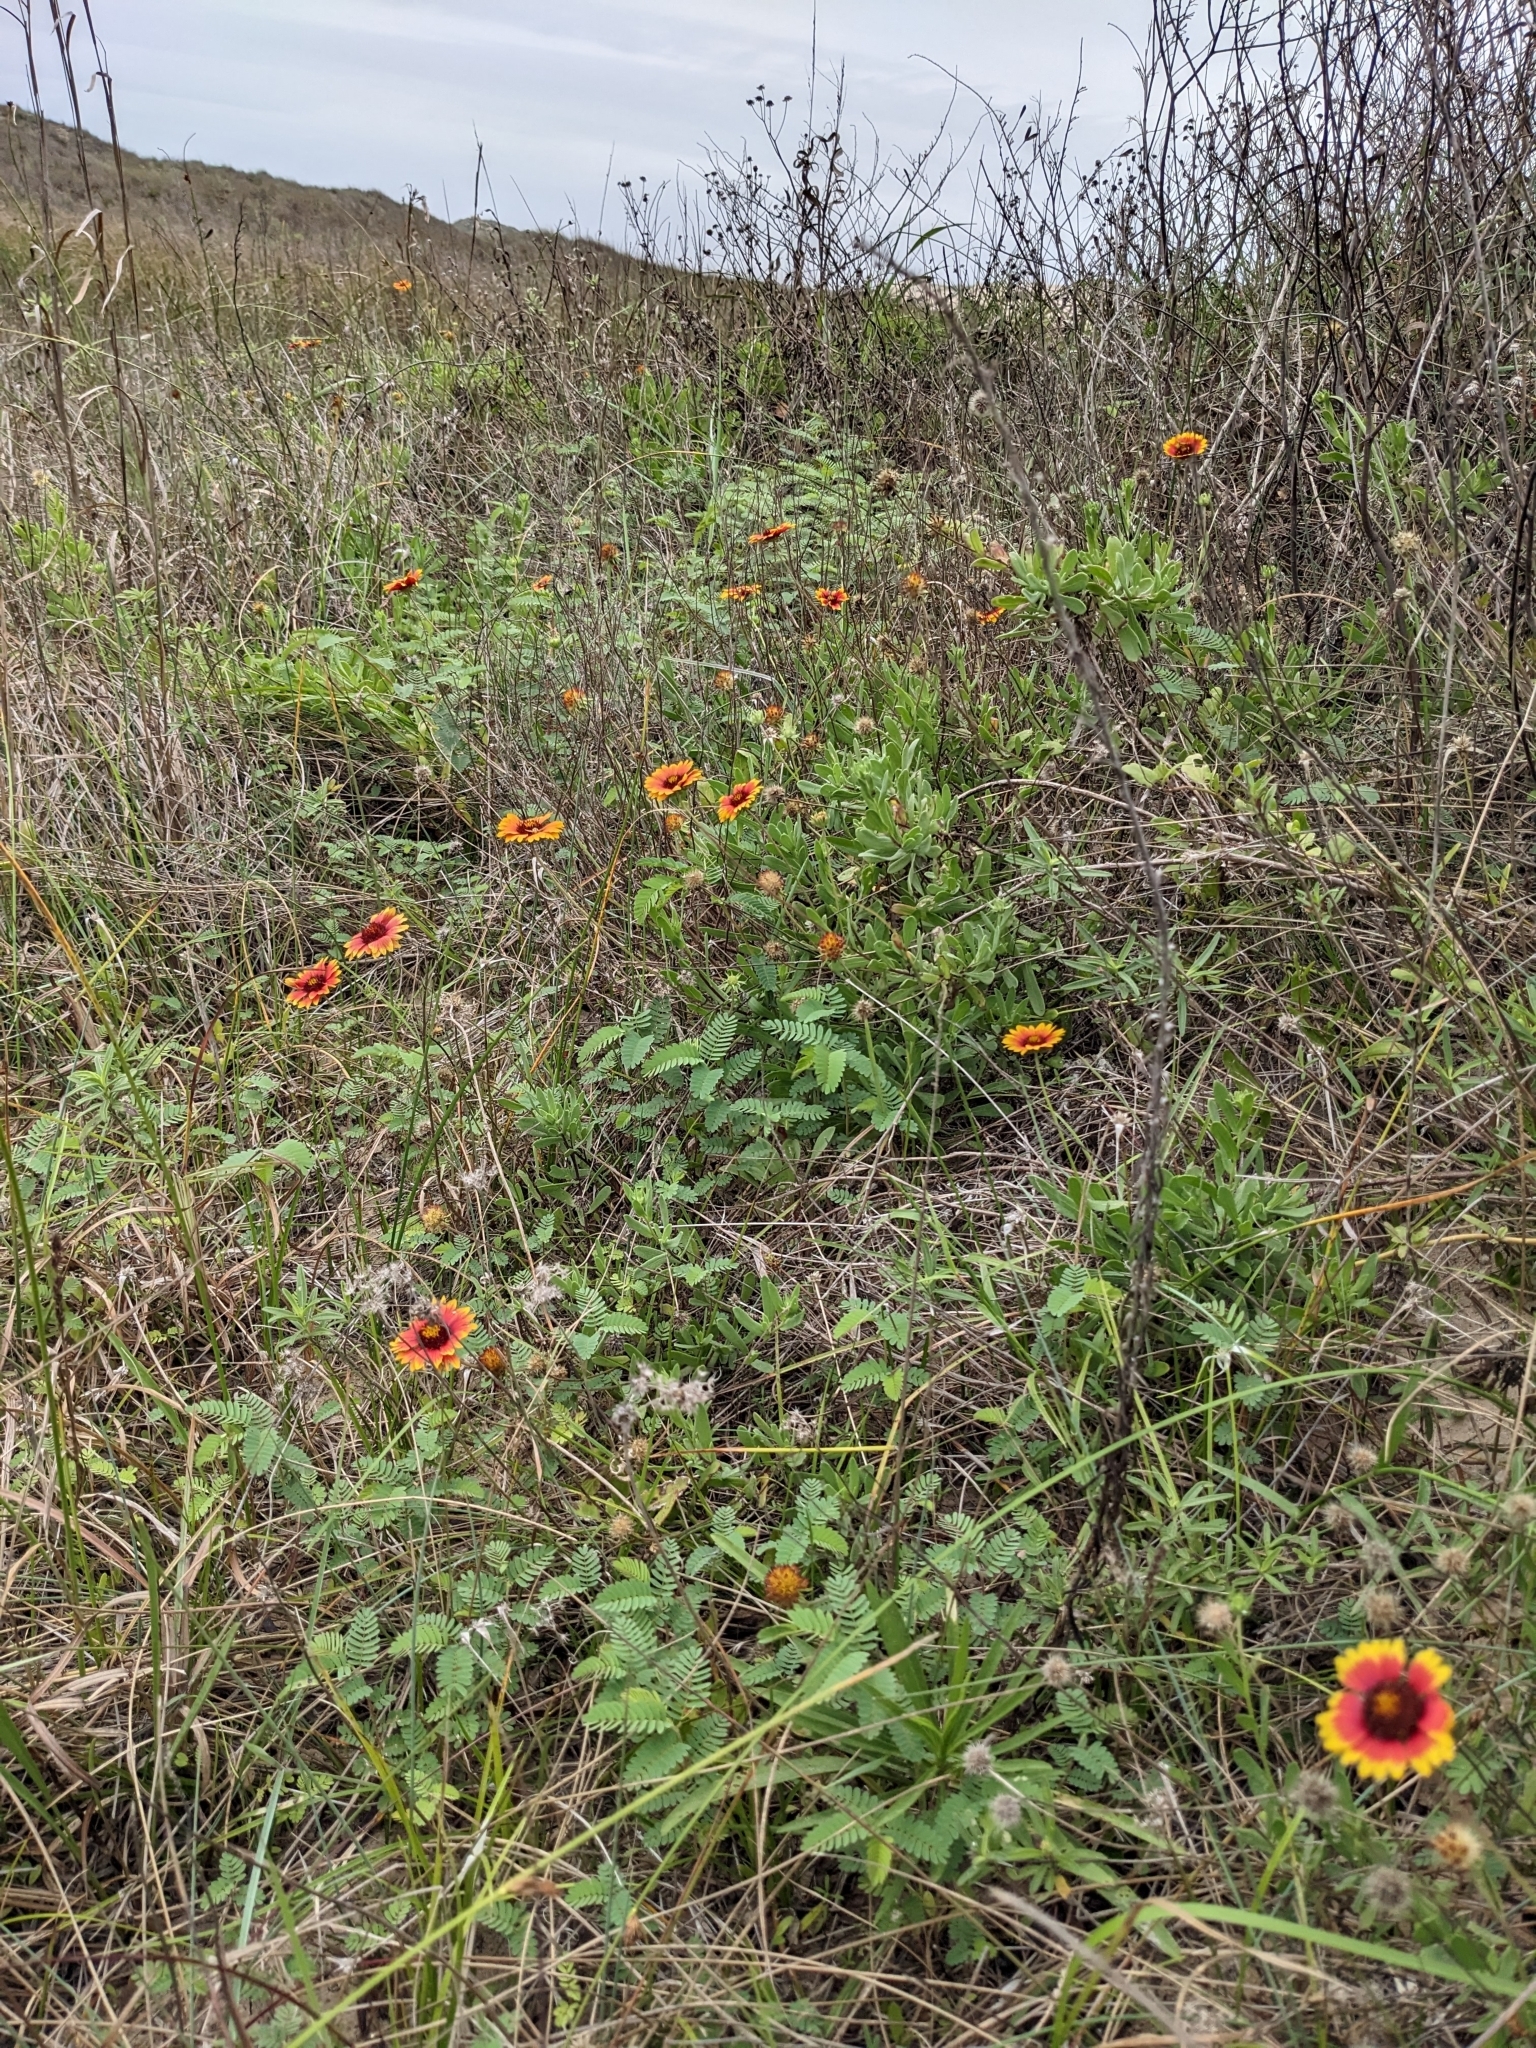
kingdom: Plantae
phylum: Tracheophyta
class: Magnoliopsida
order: Asterales
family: Asteraceae
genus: Gaillardia
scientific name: Gaillardia pulchella
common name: Firewheel
